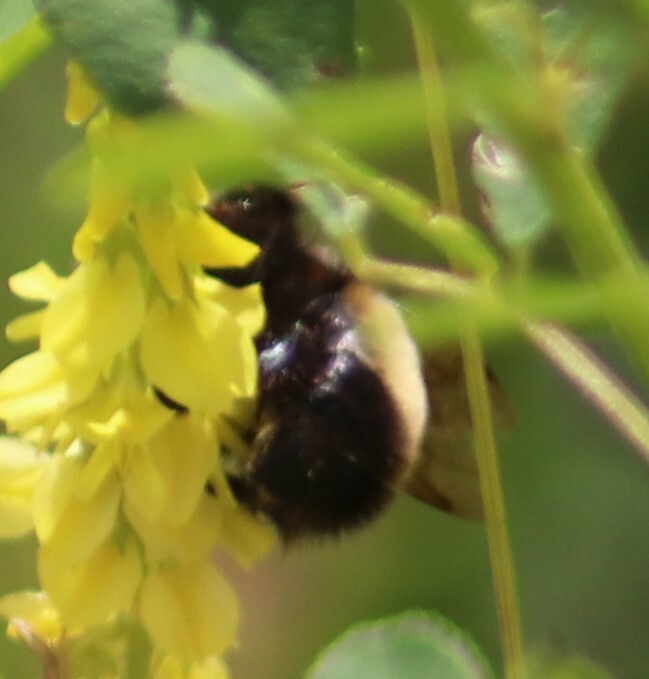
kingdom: Animalia
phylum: Arthropoda
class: Insecta
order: Hymenoptera
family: Apidae
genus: Bombus
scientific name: Bombus terricola
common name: Yellow-banded bumble bee
